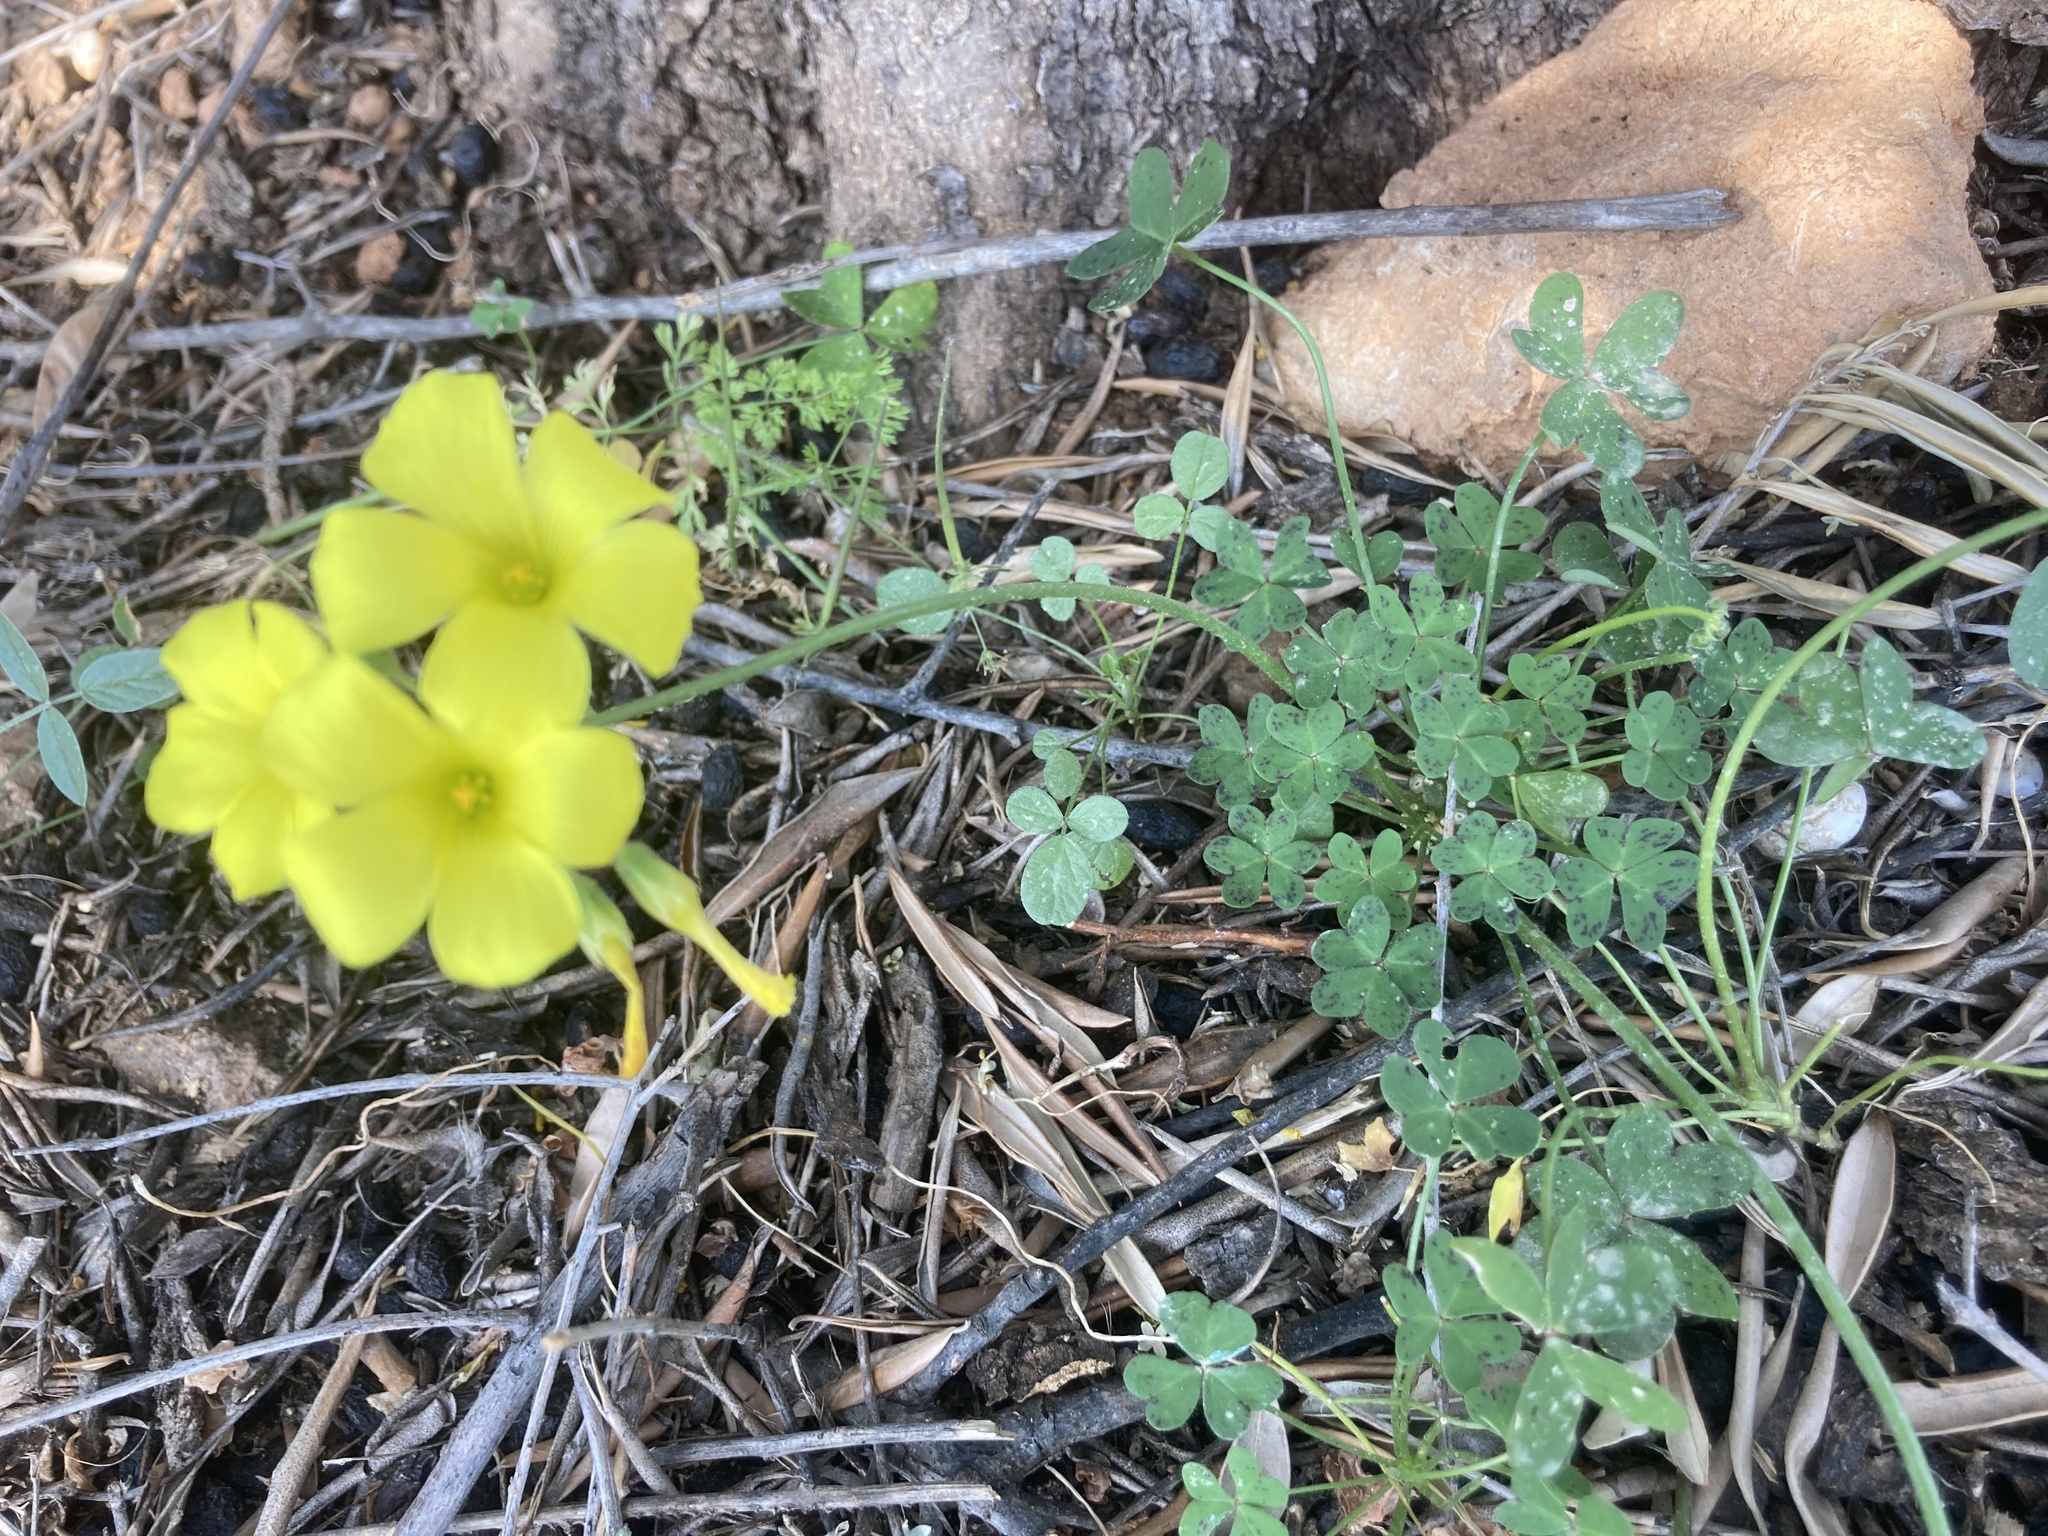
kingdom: Plantae
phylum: Tracheophyta
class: Magnoliopsida
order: Oxalidales
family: Oxalidaceae
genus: Oxalis
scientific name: Oxalis pes-caprae
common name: Bermuda-buttercup
